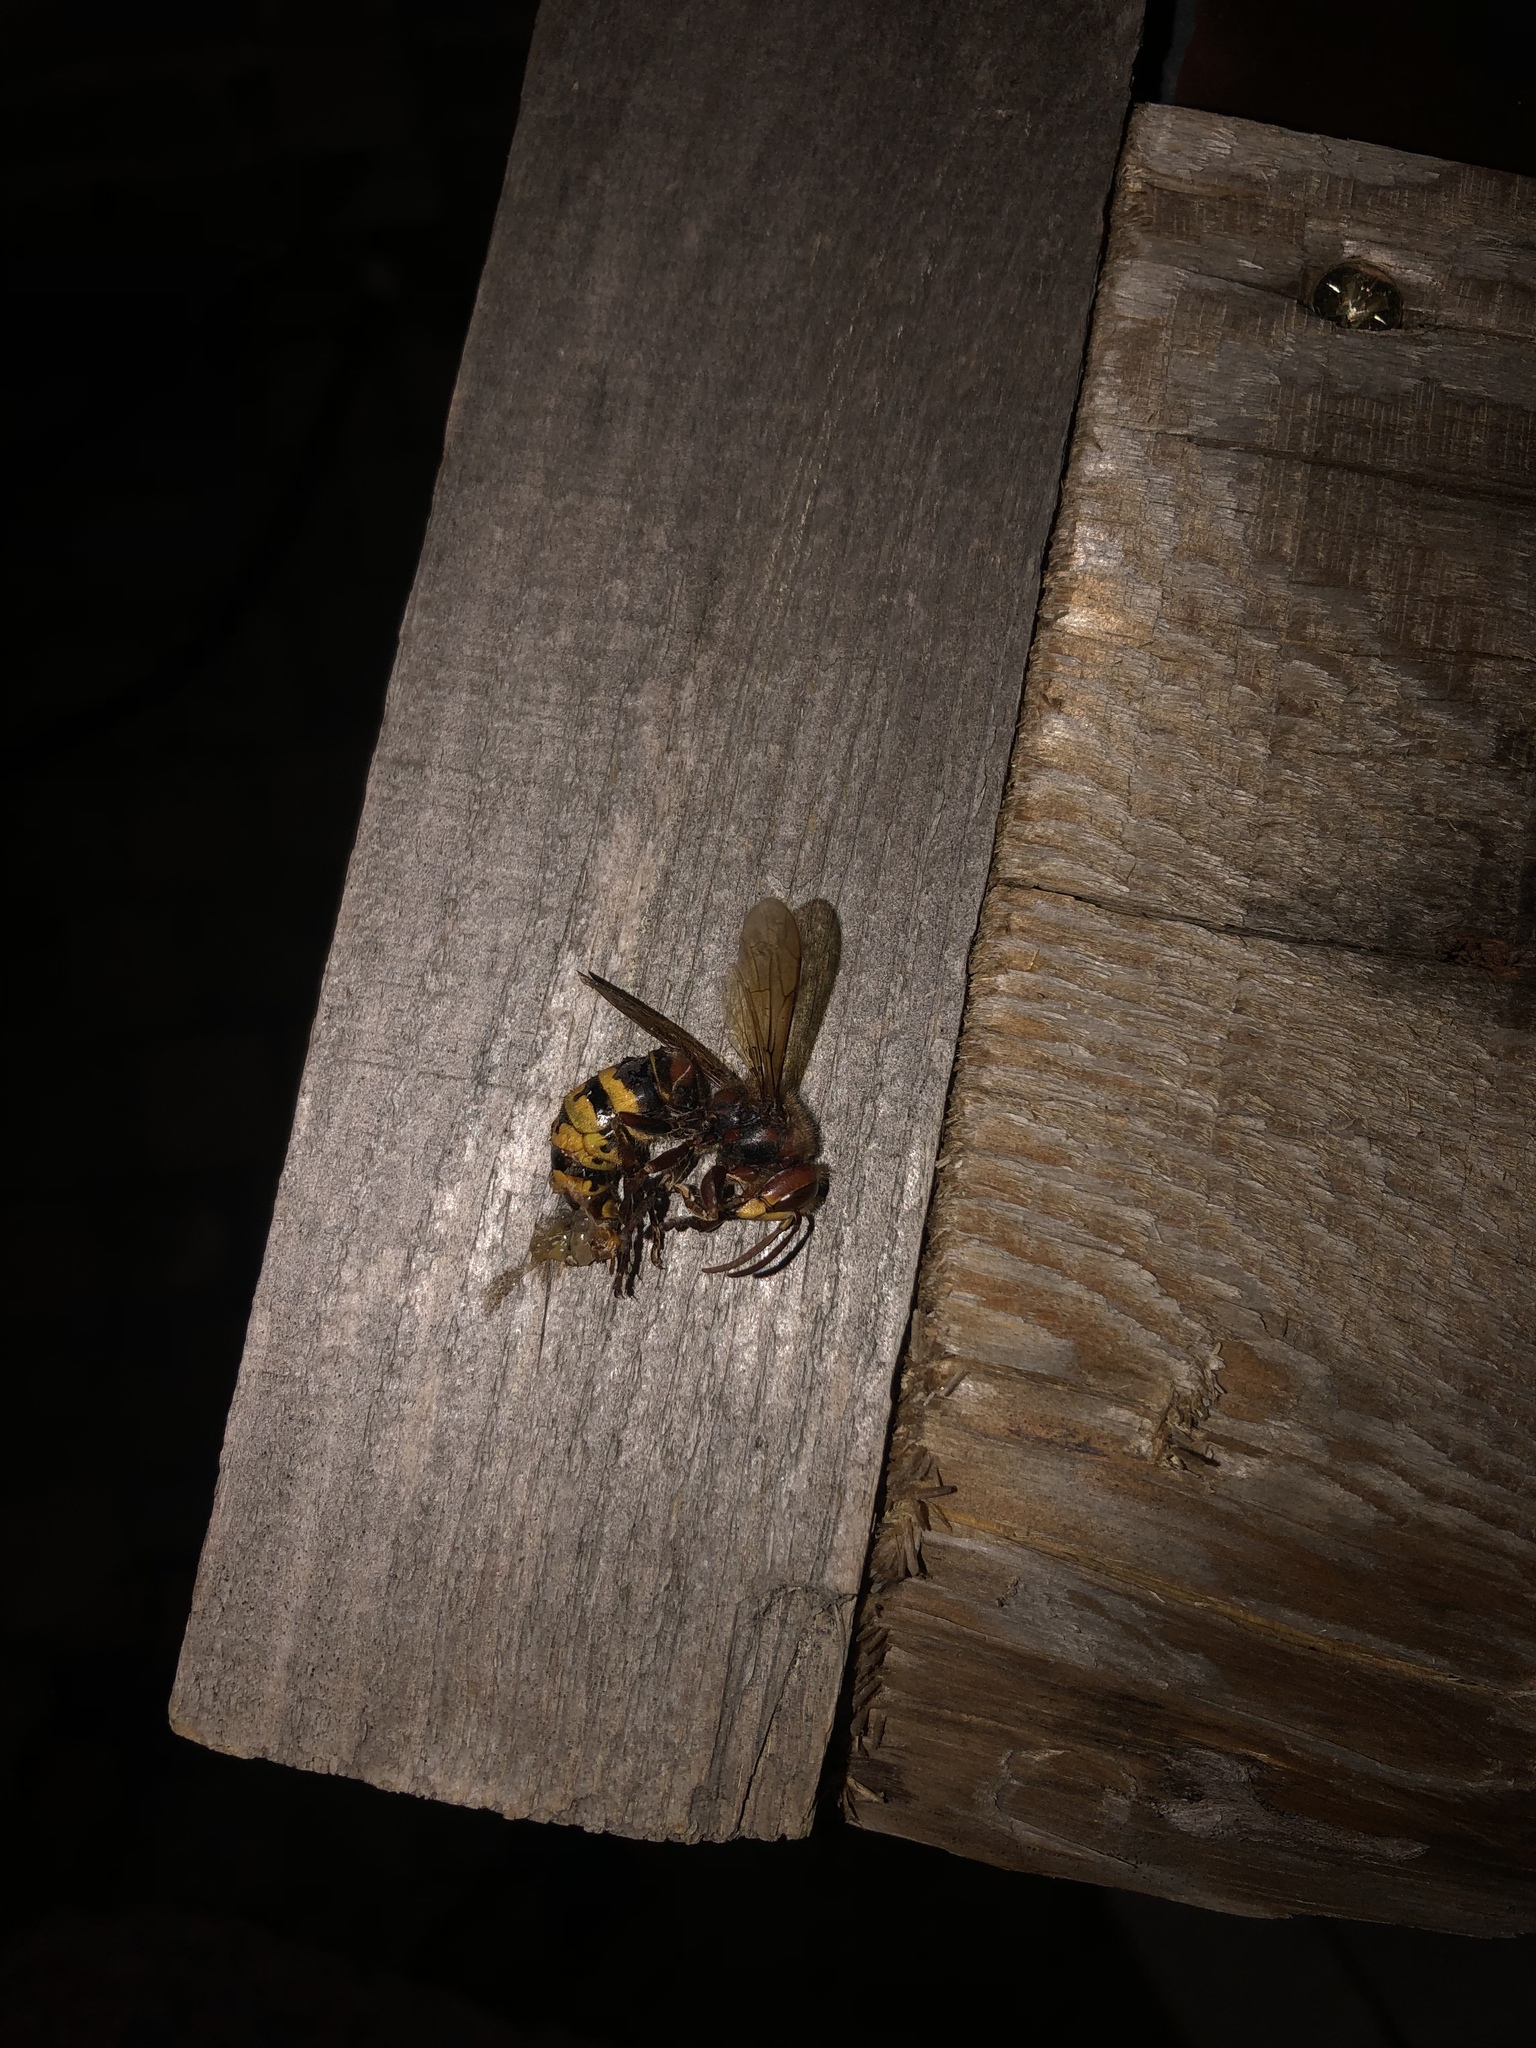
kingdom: Animalia
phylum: Arthropoda
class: Insecta
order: Hymenoptera
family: Vespidae
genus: Vespa
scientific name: Vespa crabro
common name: Hornet
